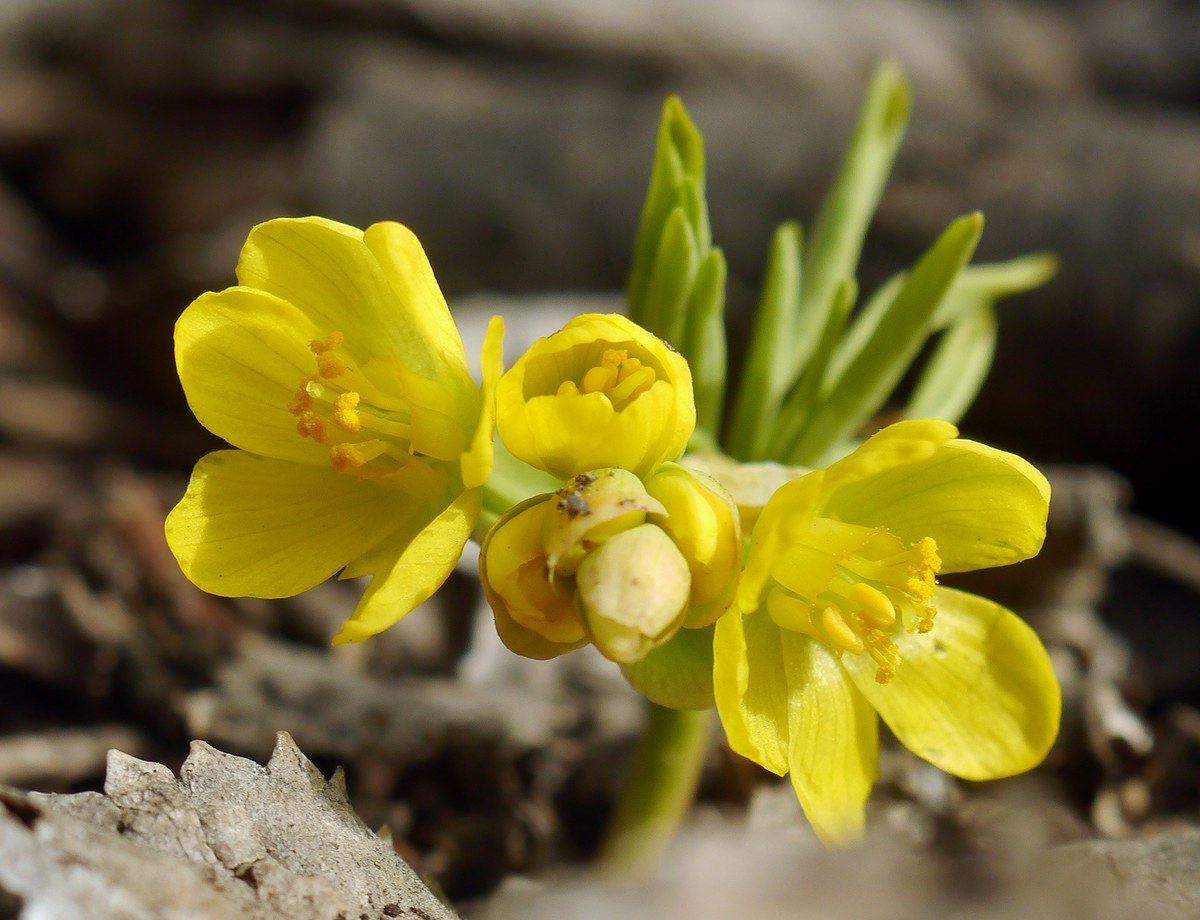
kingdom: Plantae
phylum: Tracheophyta
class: Magnoliopsida
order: Ranunculales
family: Berberidaceae
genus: Gymnospermium
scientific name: Gymnospermium odessanum
